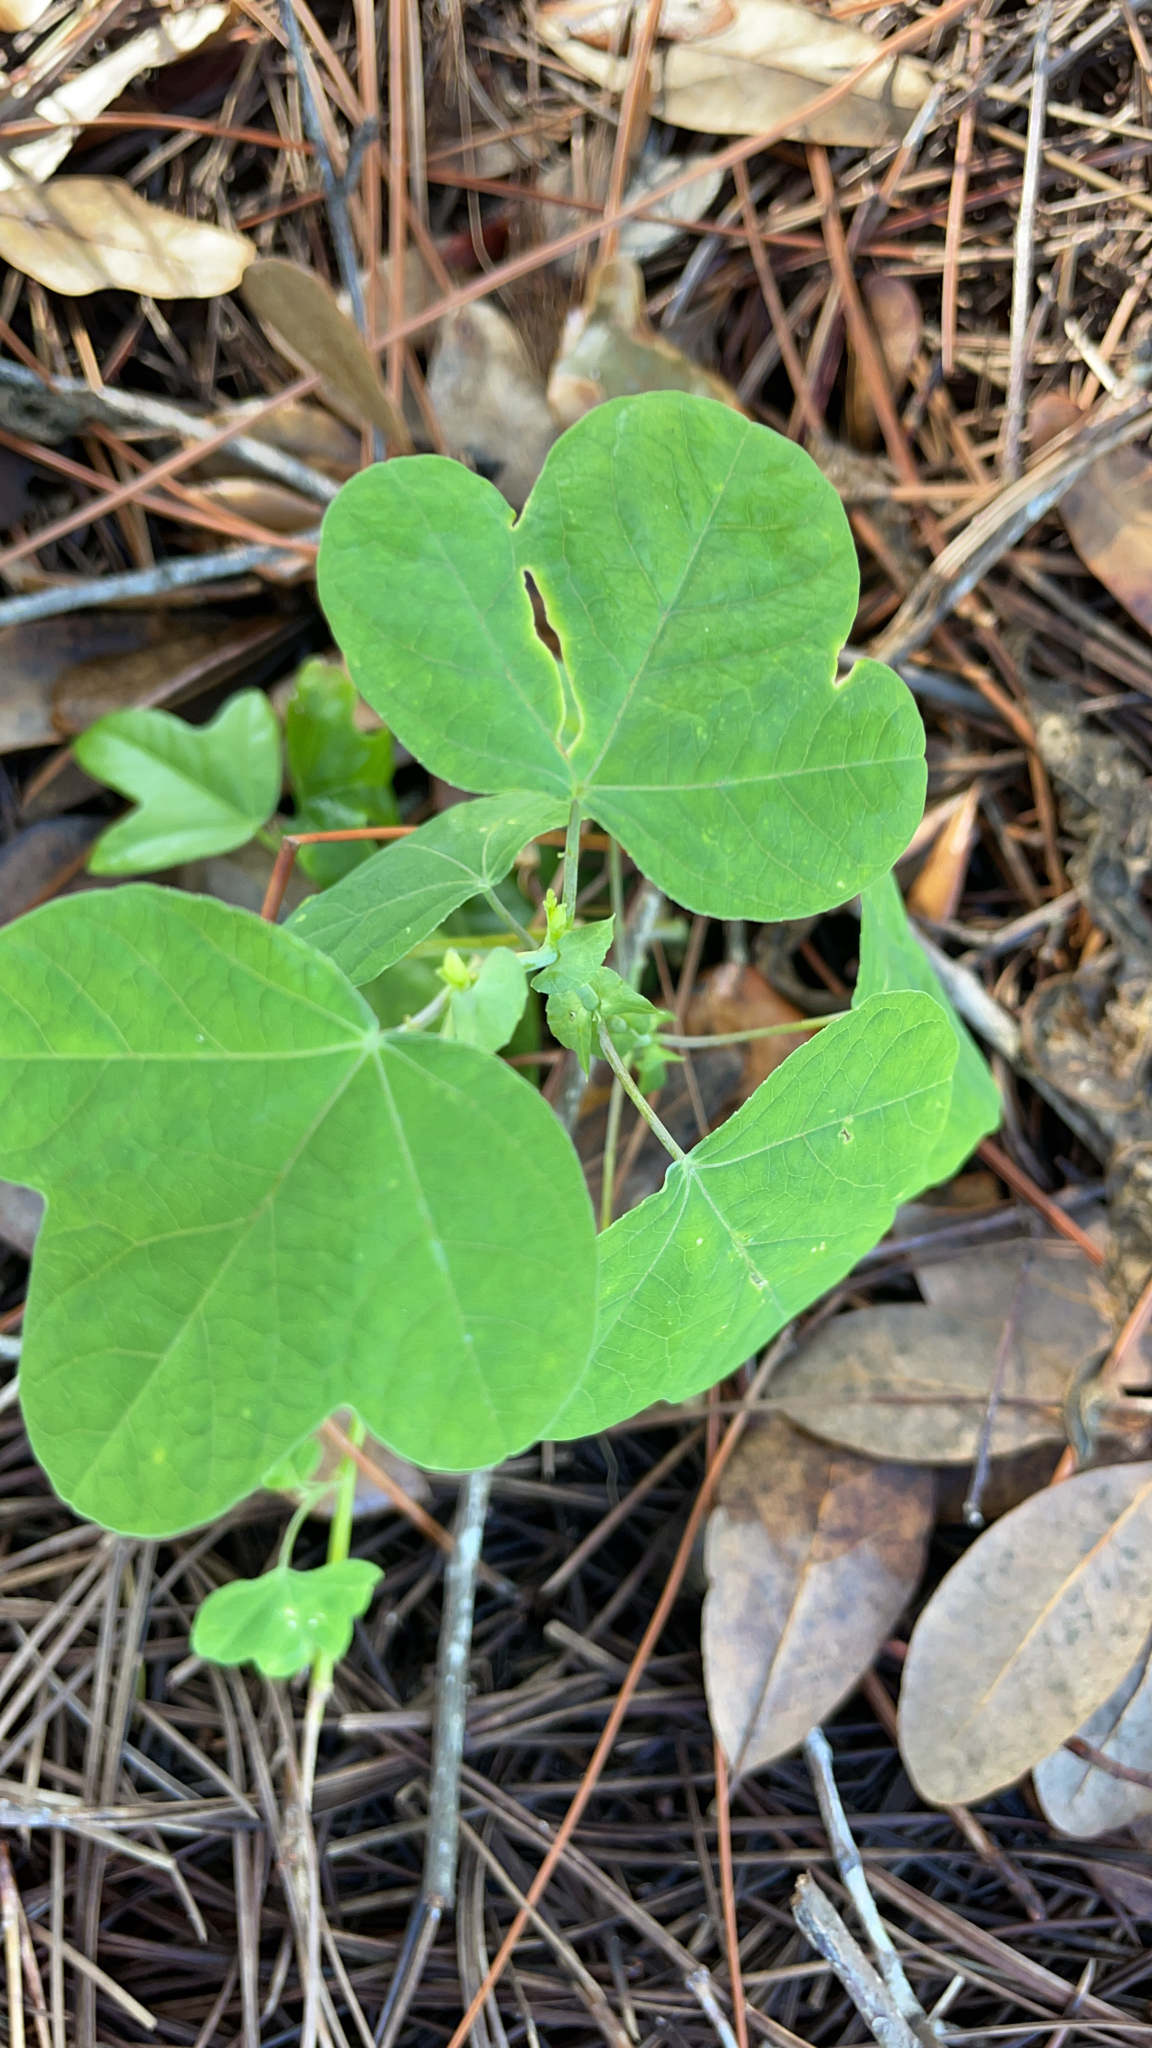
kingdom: Plantae
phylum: Tracheophyta
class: Magnoliopsida
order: Malpighiales
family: Passifloraceae
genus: Passiflora
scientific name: Passiflora pallens
